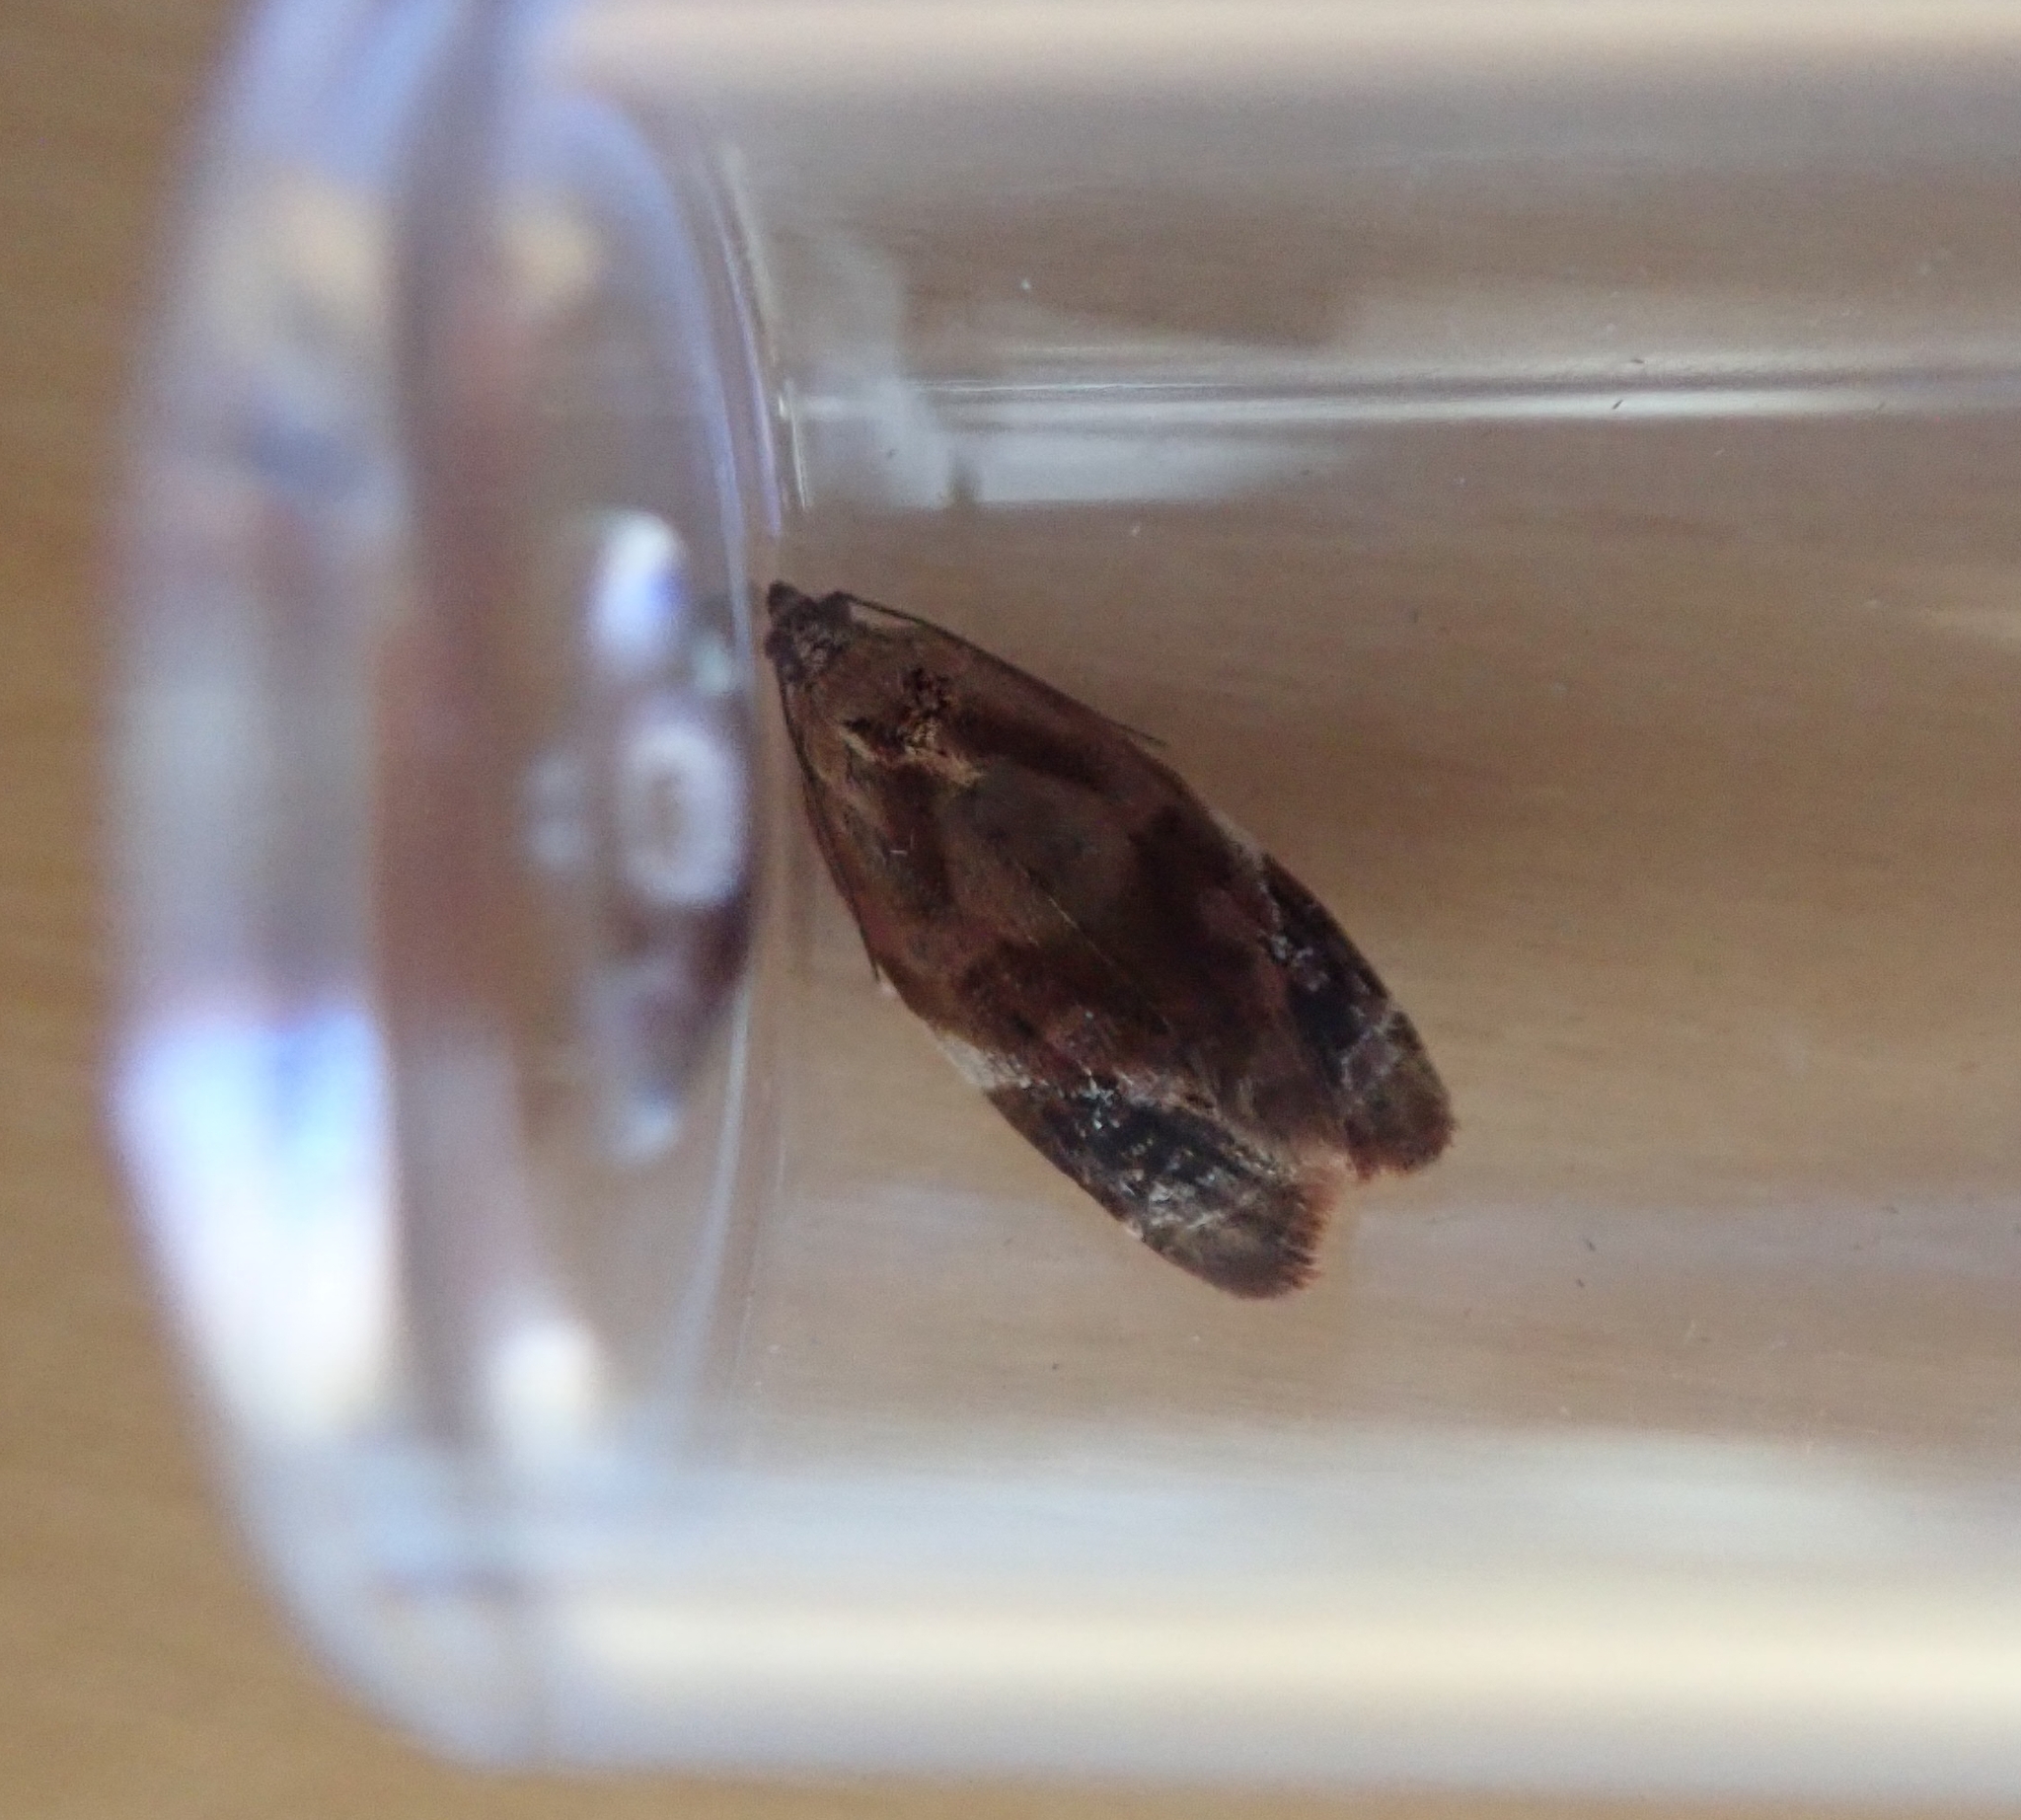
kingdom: Animalia
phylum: Arthropoda
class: Insecta
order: Lepidoptera
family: Tortricidae
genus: Ditula
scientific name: Ditula angustiorana
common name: Red-barred tortrix
